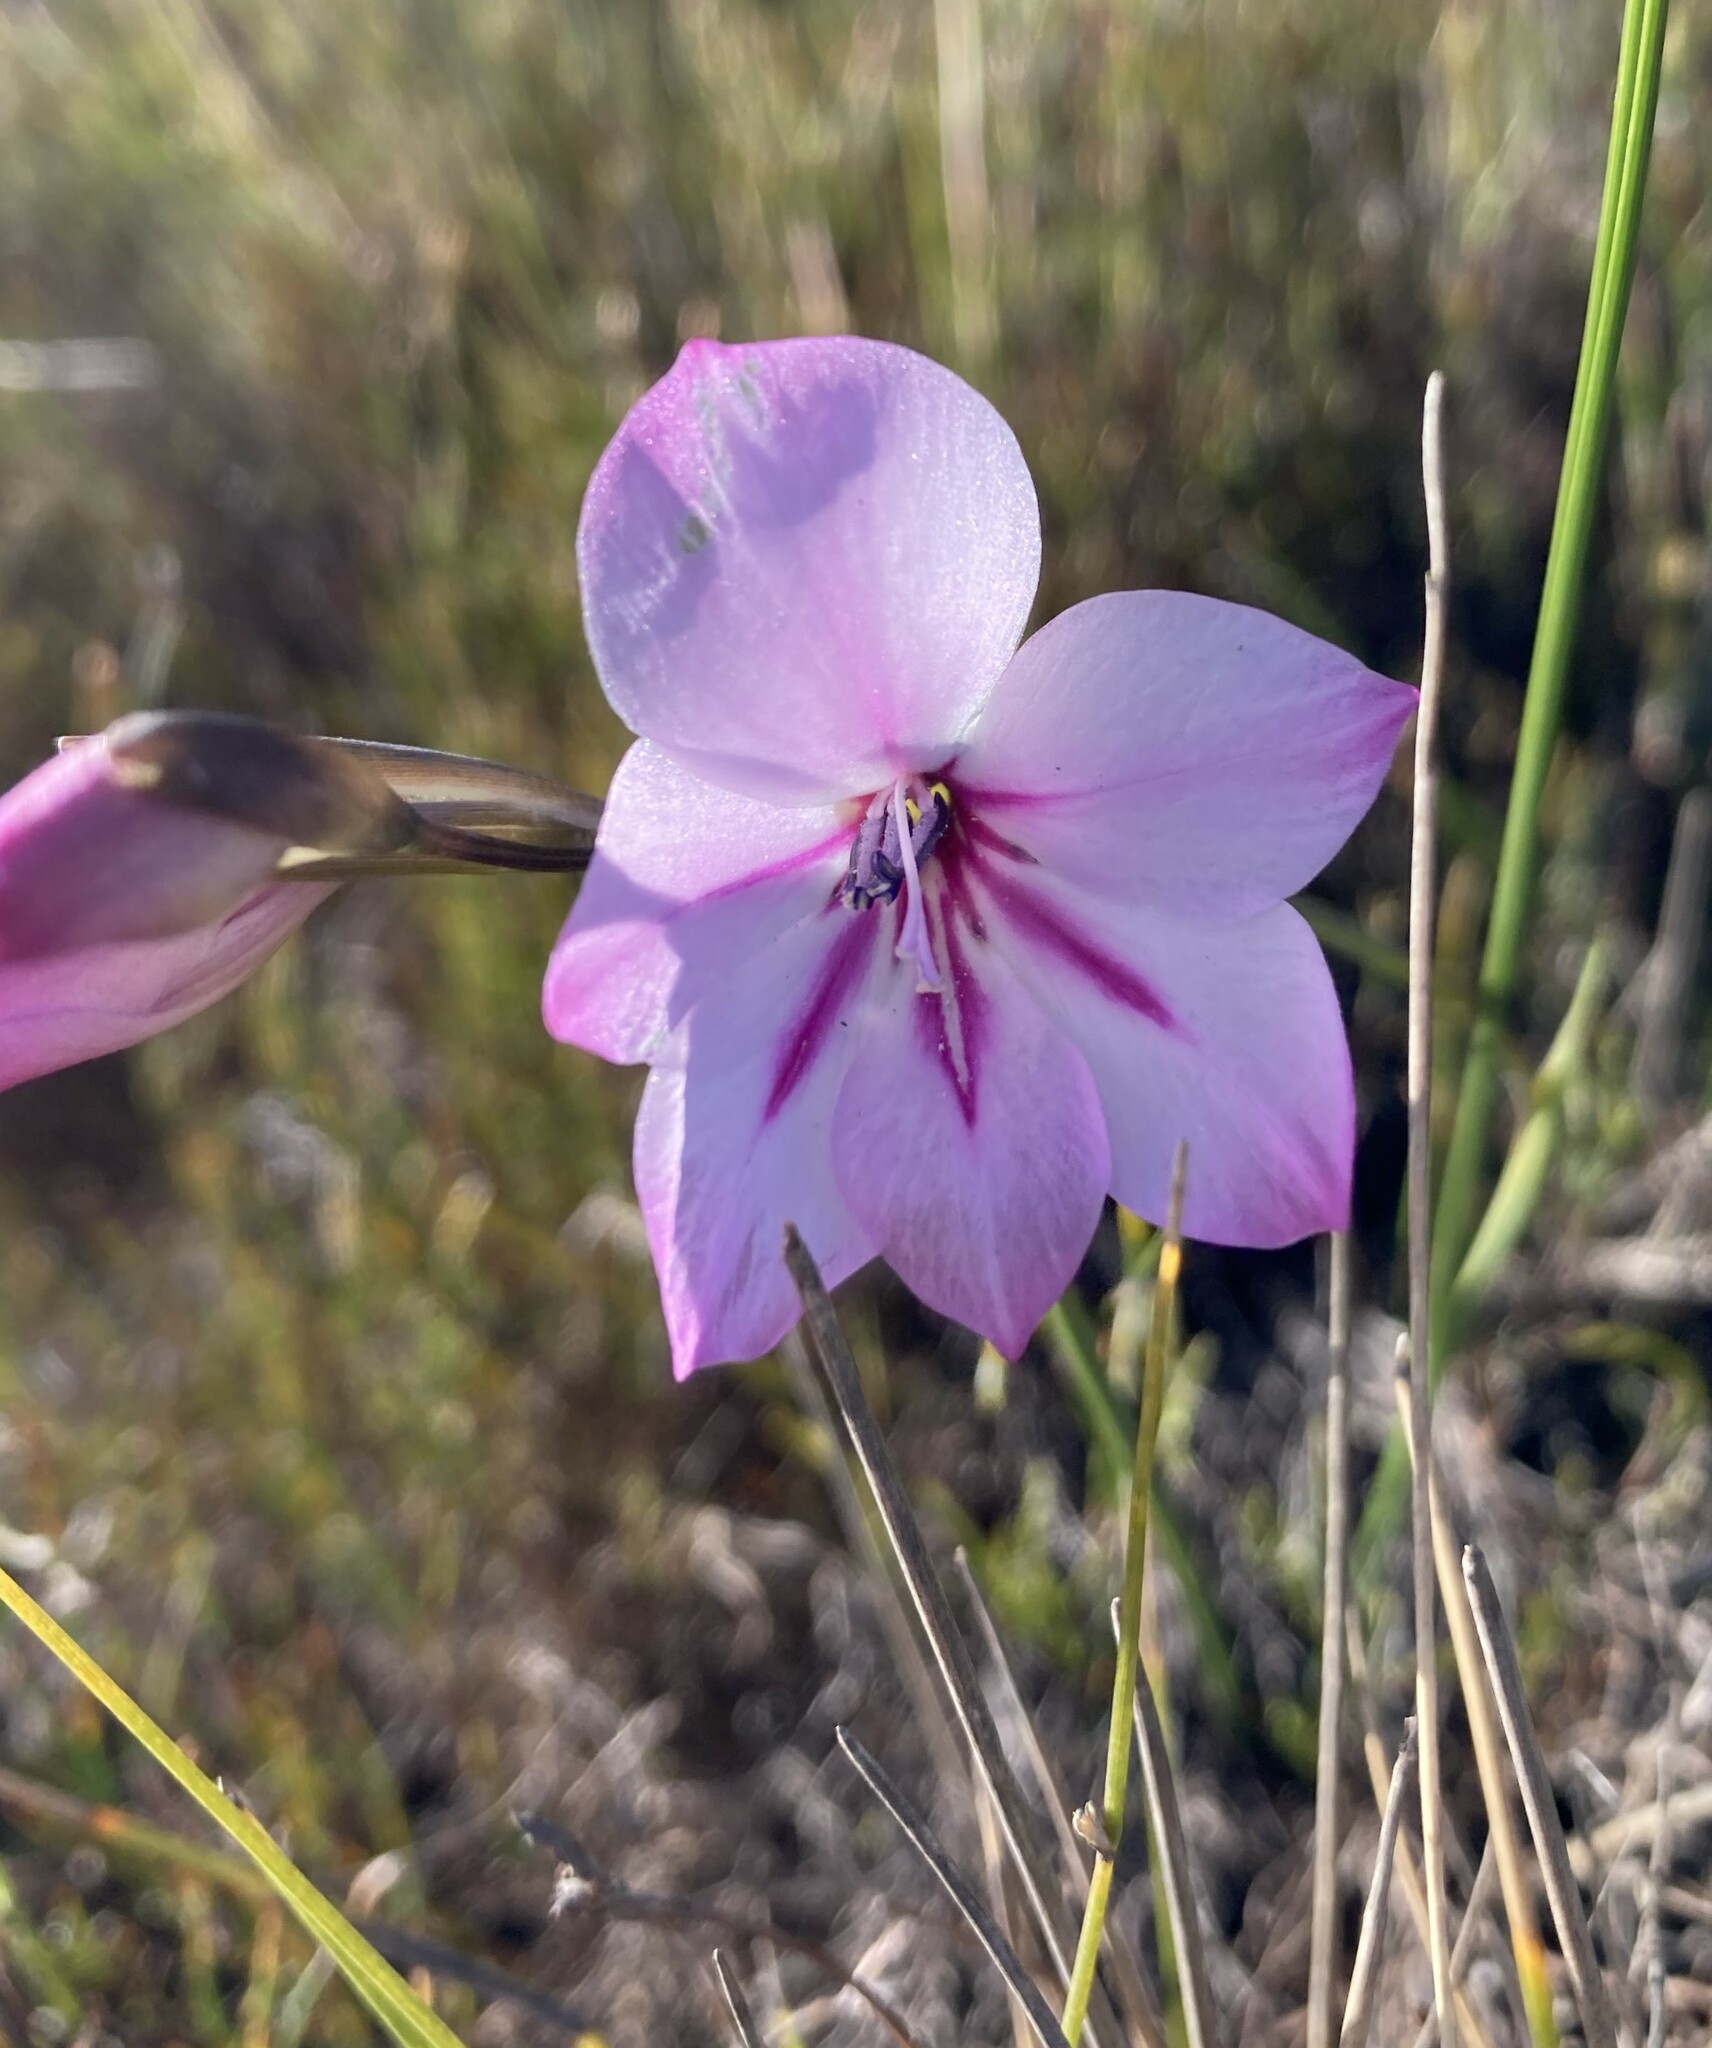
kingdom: Plantae
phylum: Tracheophyta
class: Liliopsida
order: Asparagales
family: Iridaceae
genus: Gladiolus
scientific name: Gladiolus inflatus
